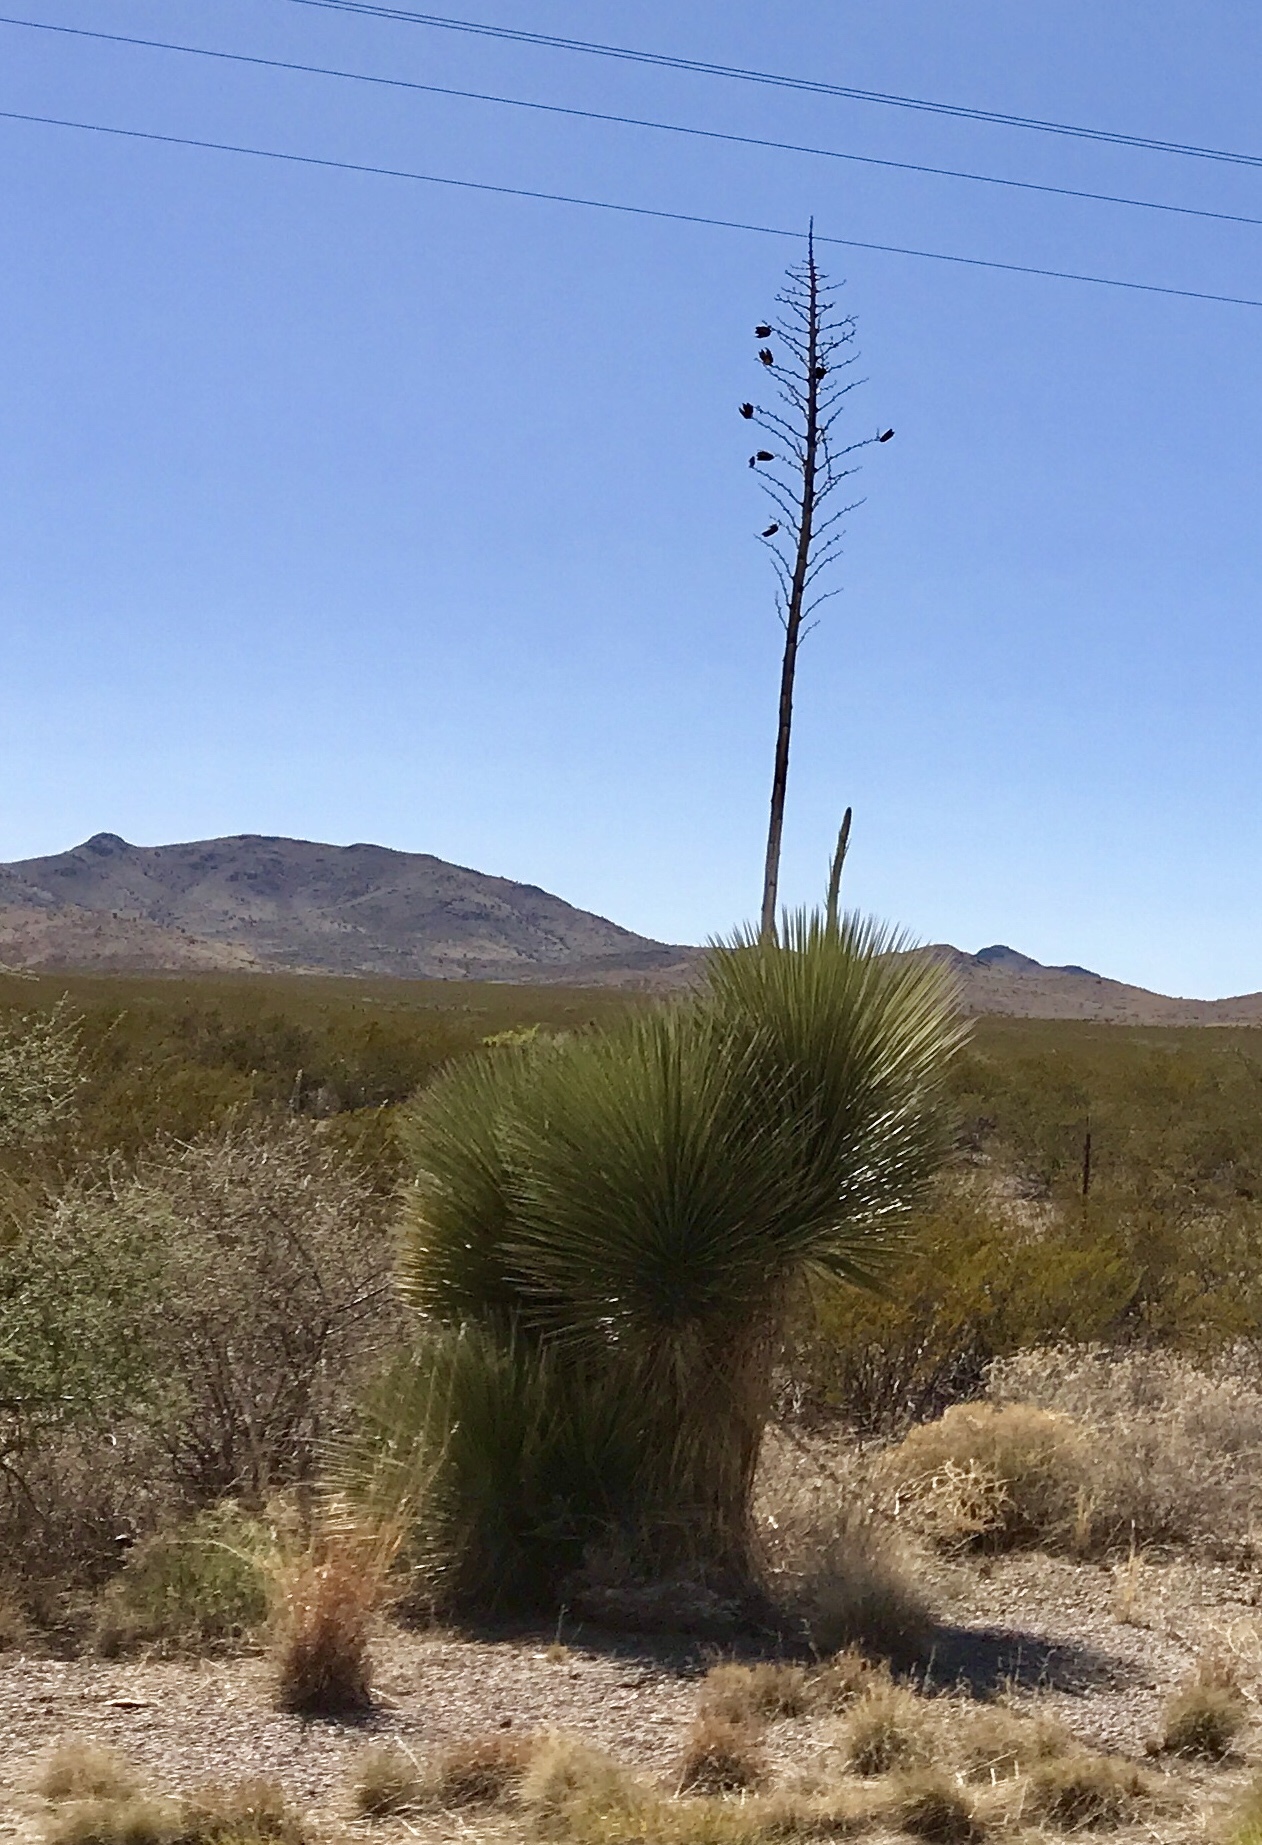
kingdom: Plantae
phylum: Tracheophyta
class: Liliopsida
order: Asparagales
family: Asparagaceae
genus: Yucca
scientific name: Yucca elata
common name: Palmella
